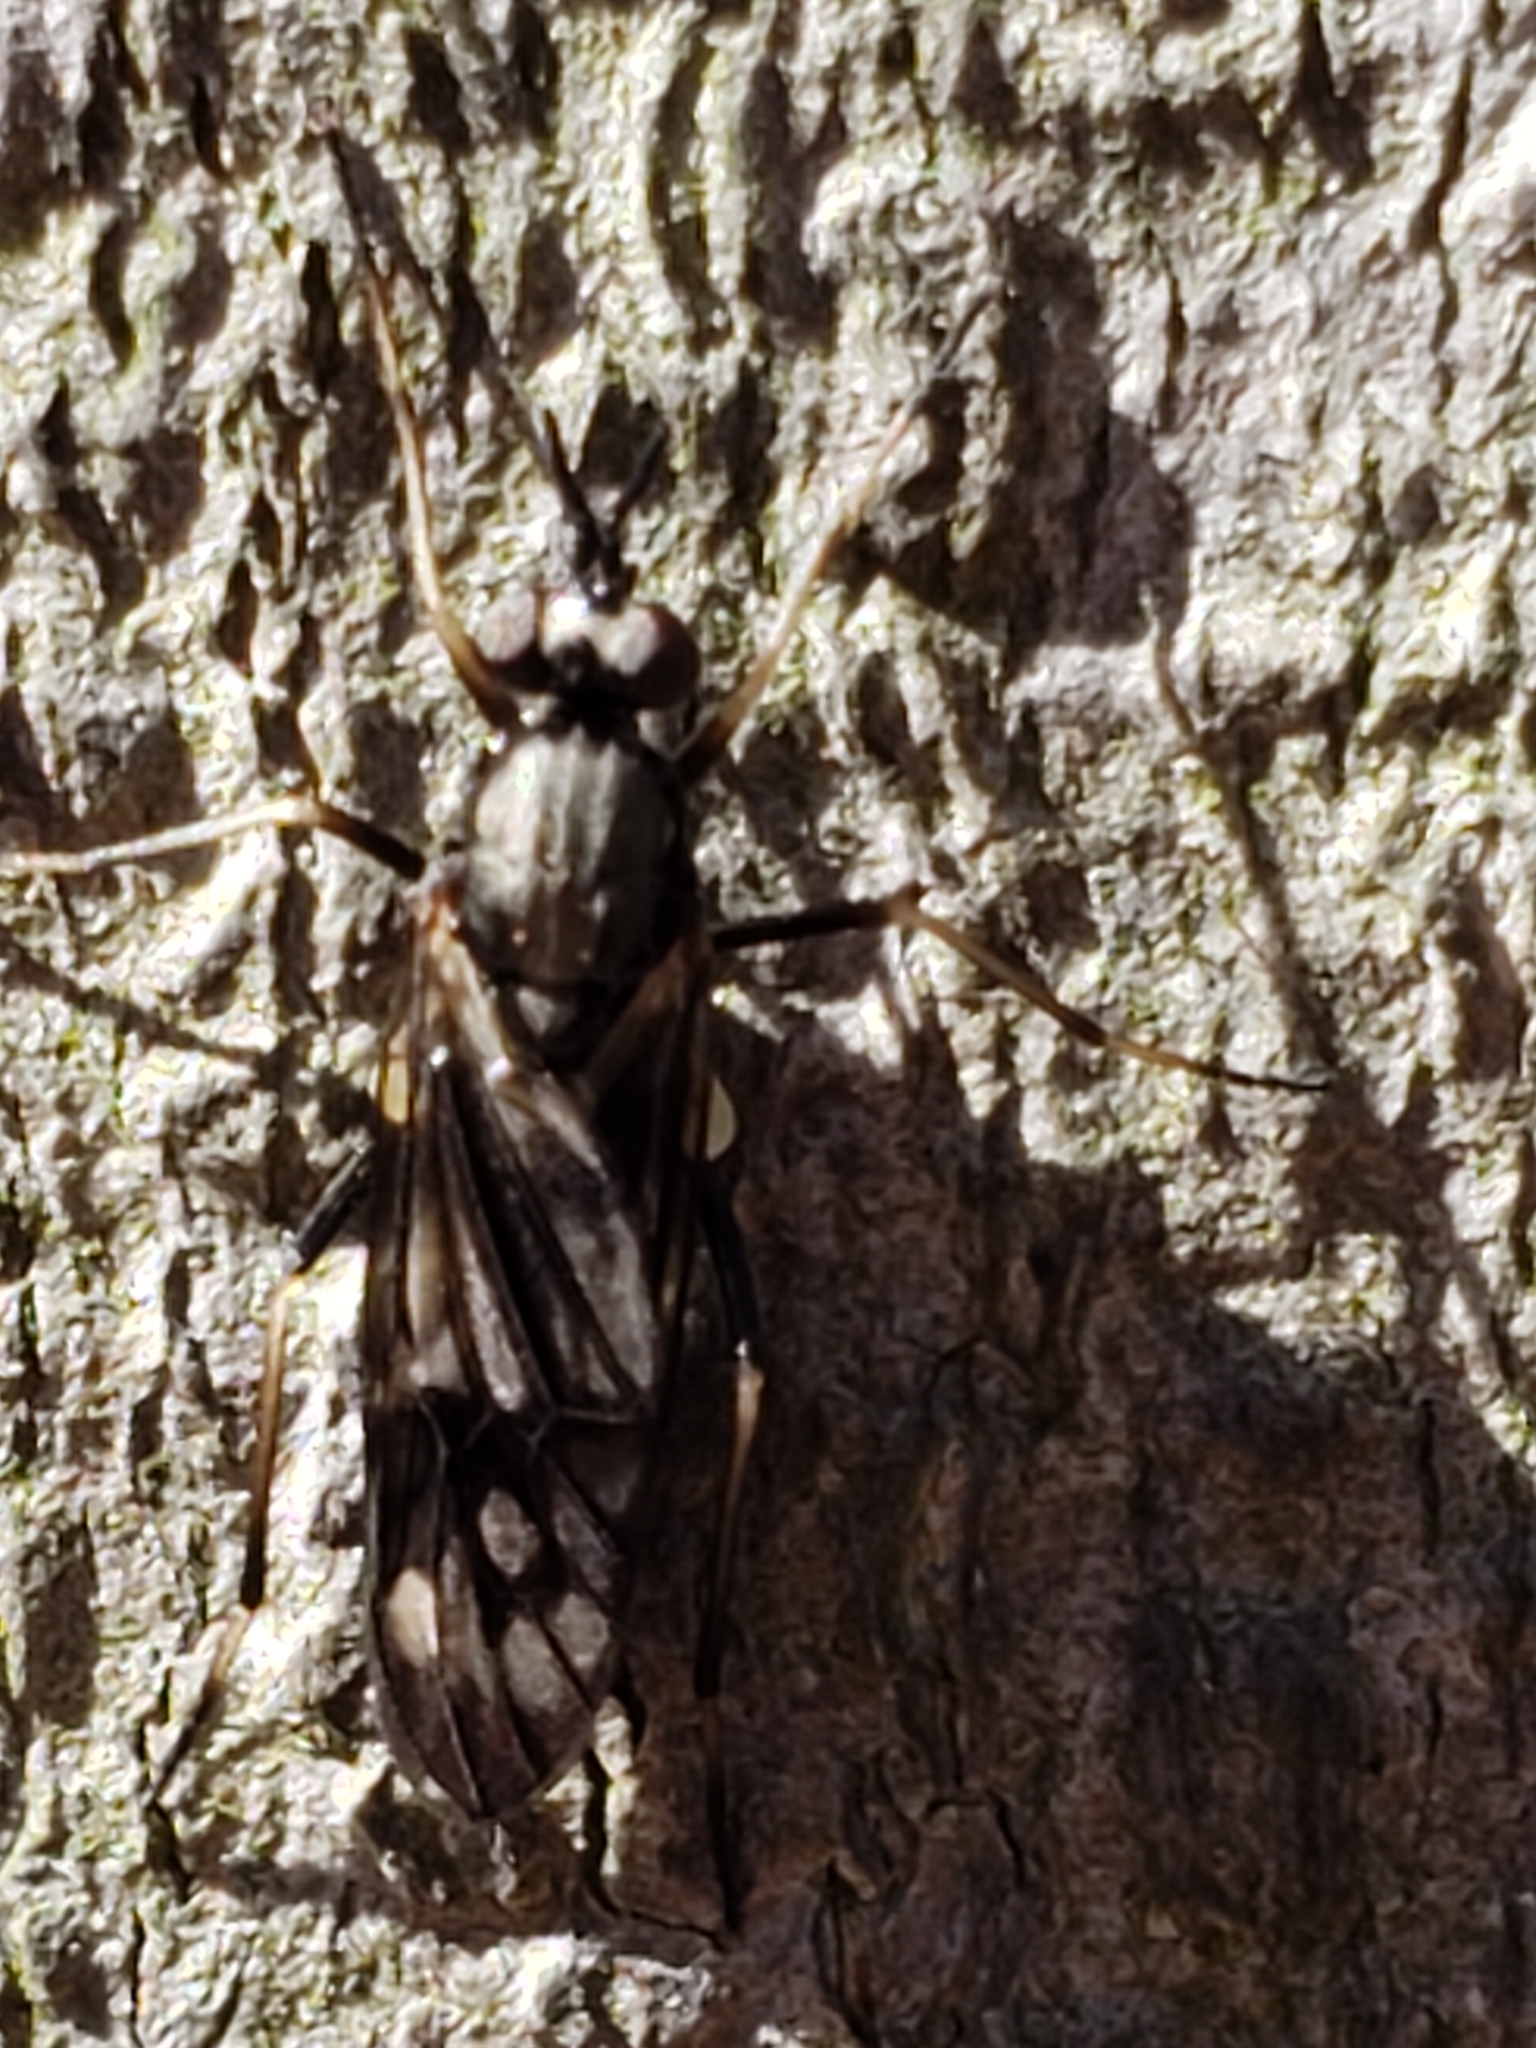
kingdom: Animalia
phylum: Arthropoda
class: Insecta
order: Diptera
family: Xylophagidae
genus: Xylophagus
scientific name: Xylophagus lugens
